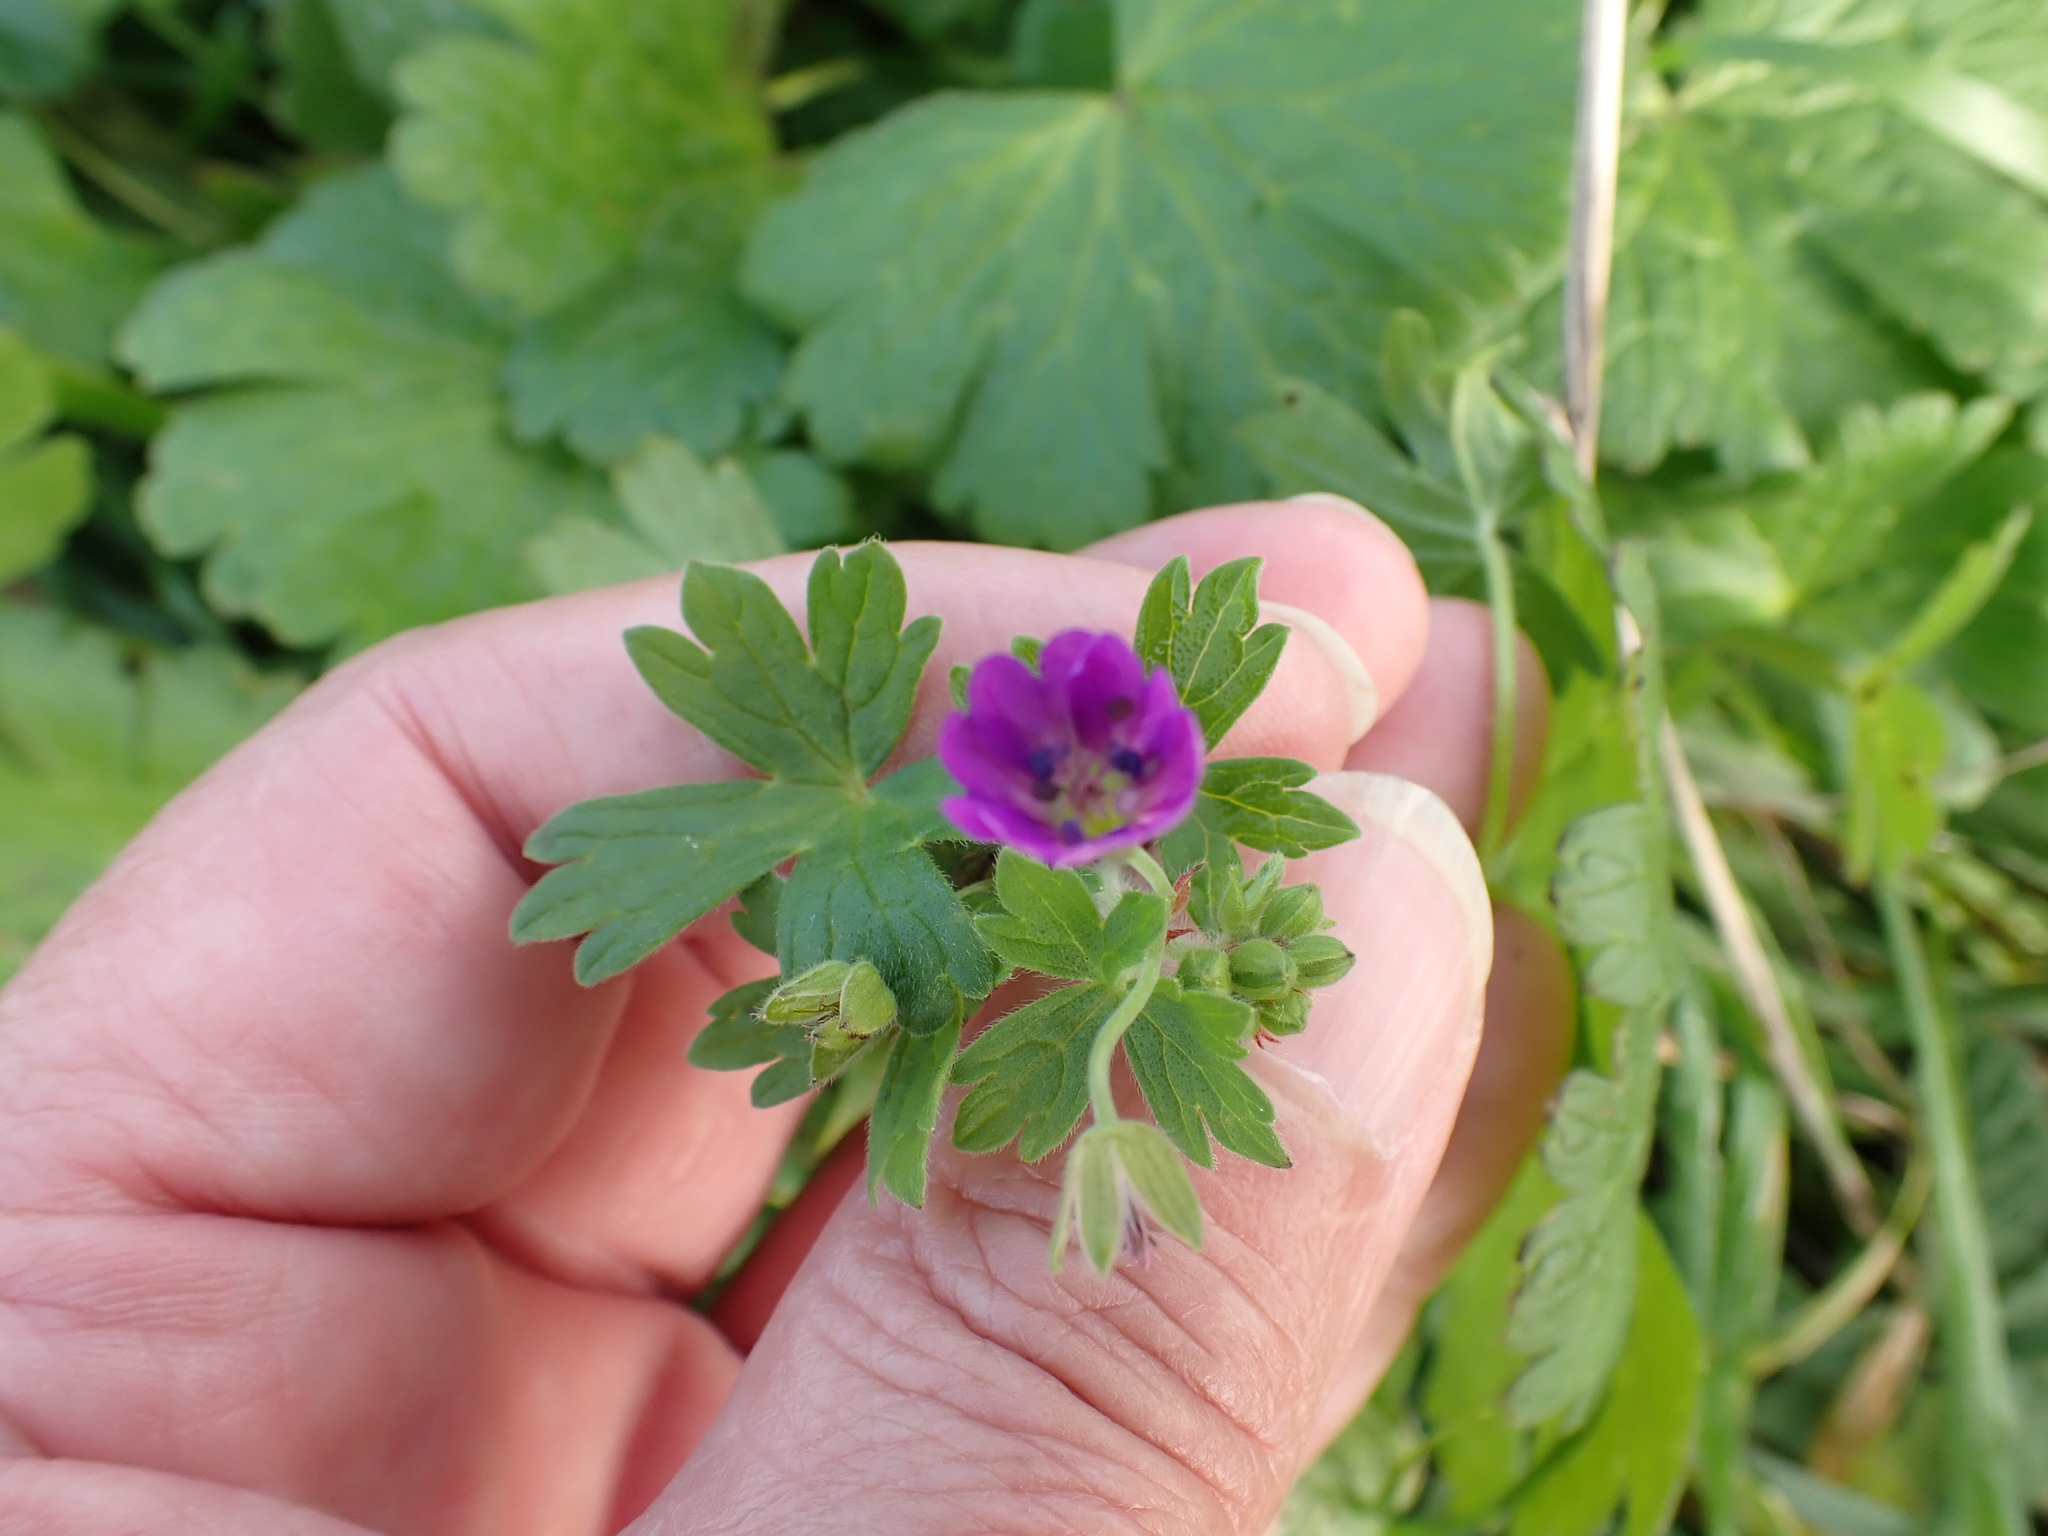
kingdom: Plantae
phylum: Tracheophyta
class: Magnoliopsida
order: Geraniales
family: Geraniaceae
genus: Geranium
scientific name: Geranium pyrenaicum
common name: Hedgerow crane's-bill
